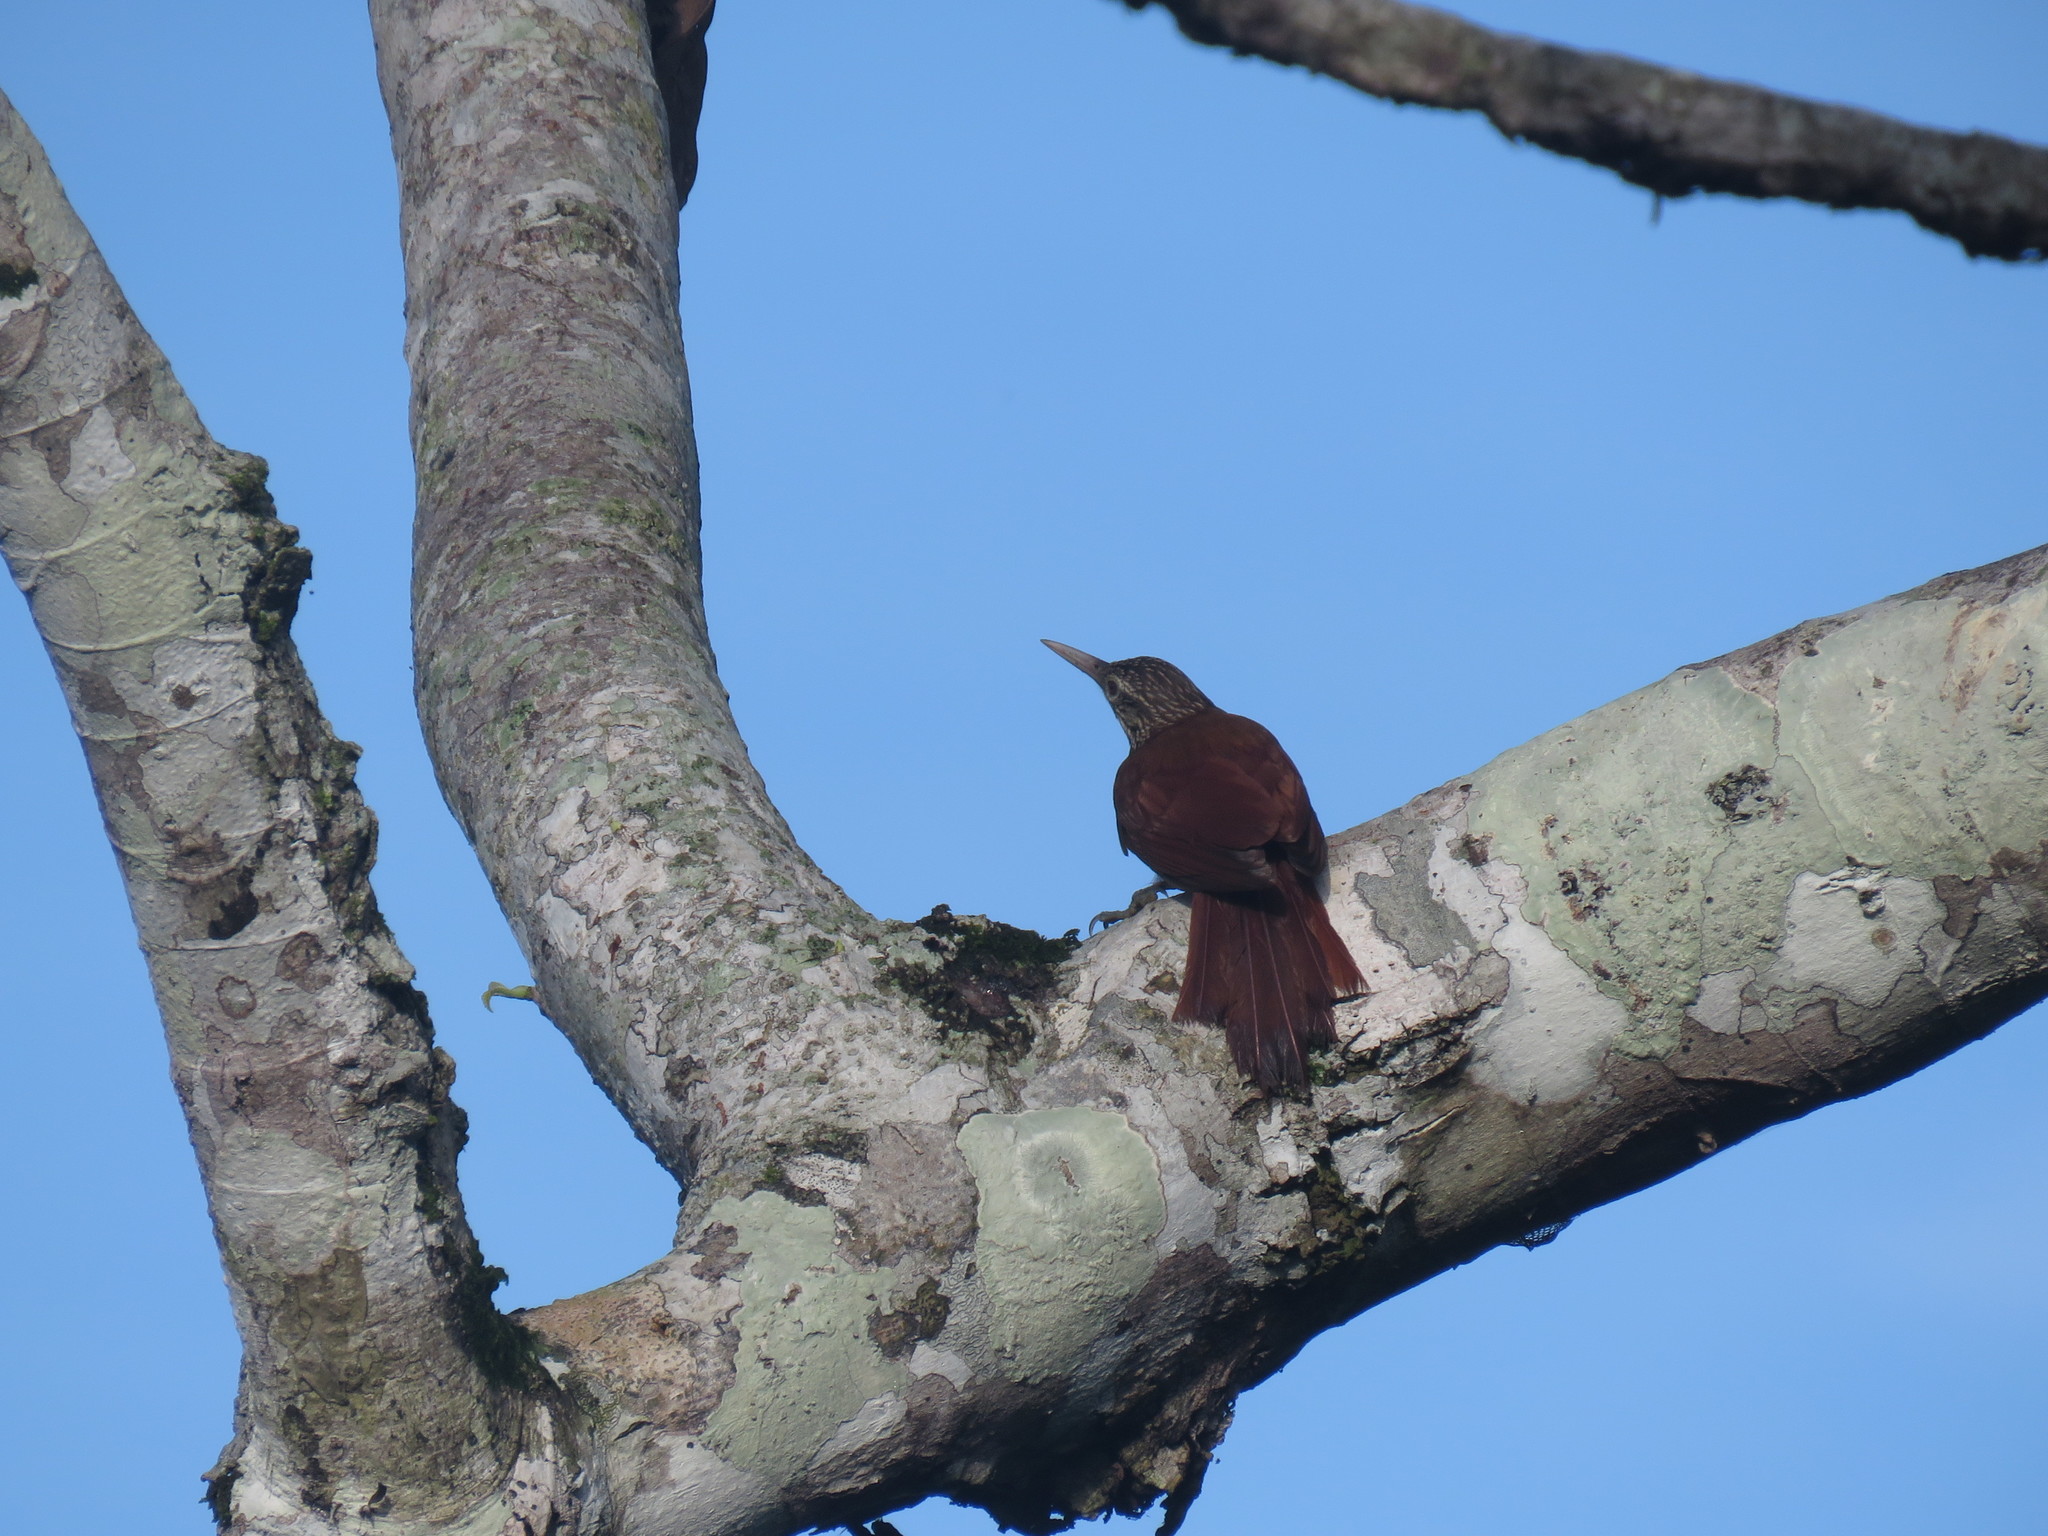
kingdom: Animalia
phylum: Chordata
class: Aves
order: Passeriformes
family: Furnariidae
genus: Xiphorhynchus
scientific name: Xiphorhynchus picus
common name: Straight-billed woodcreeper
